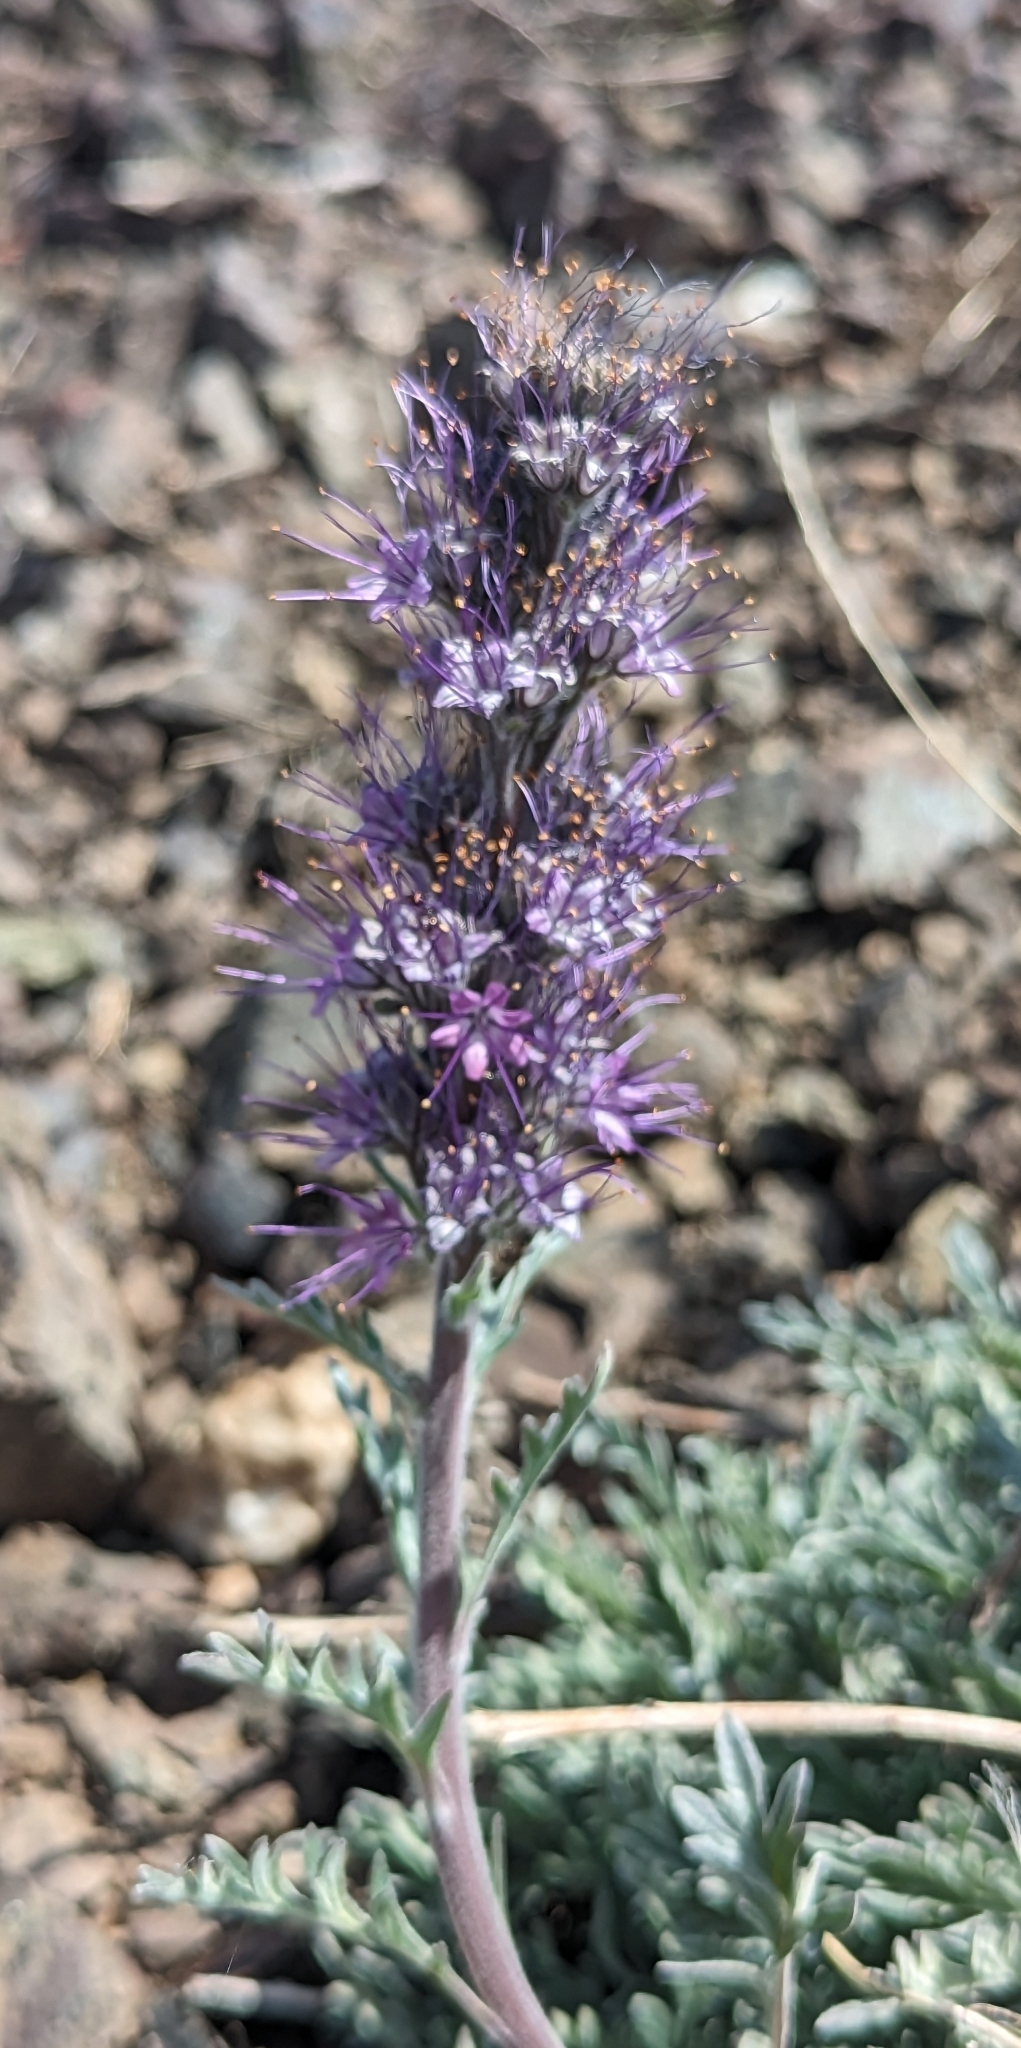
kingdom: Plantae
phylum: Tracheophyta
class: Magnoliopsida
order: Boraginales
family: Hydrophyllaceae
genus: Phacelia
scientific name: Phacelia sericea
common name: Silky phacelia
